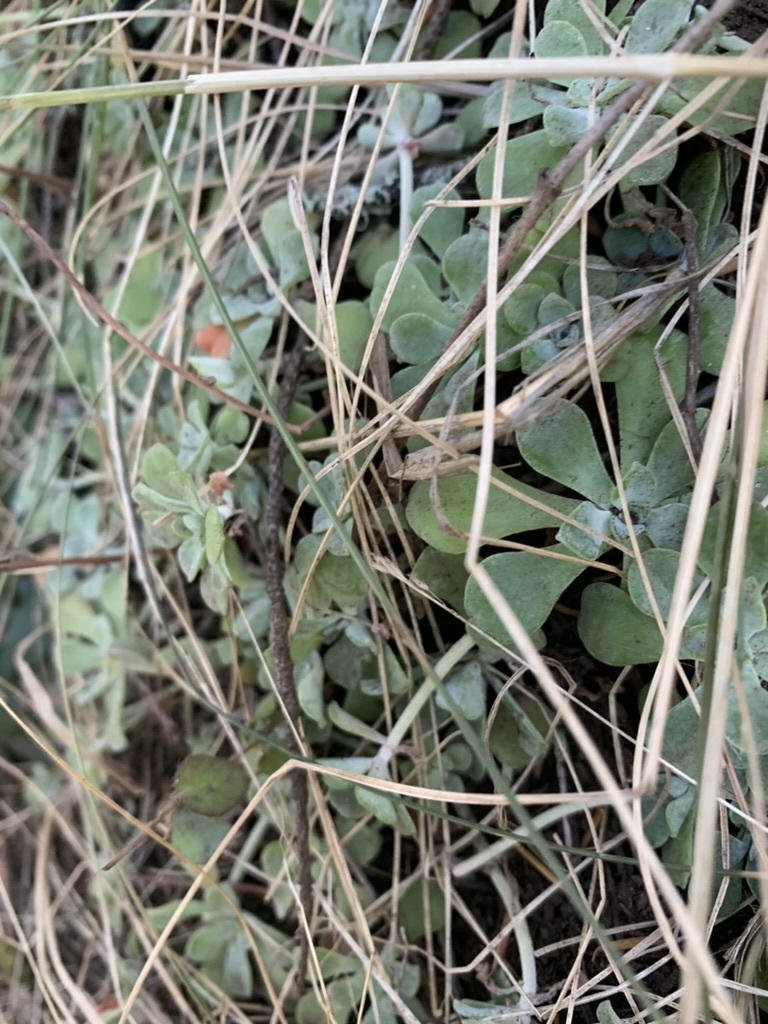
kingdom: Plantae
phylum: Tracheophyta
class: Magnoliopsida
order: Saxifragales
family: Crassulaceae
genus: Sedum
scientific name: Sedum spathulifolium
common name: Colorado stonecrop
